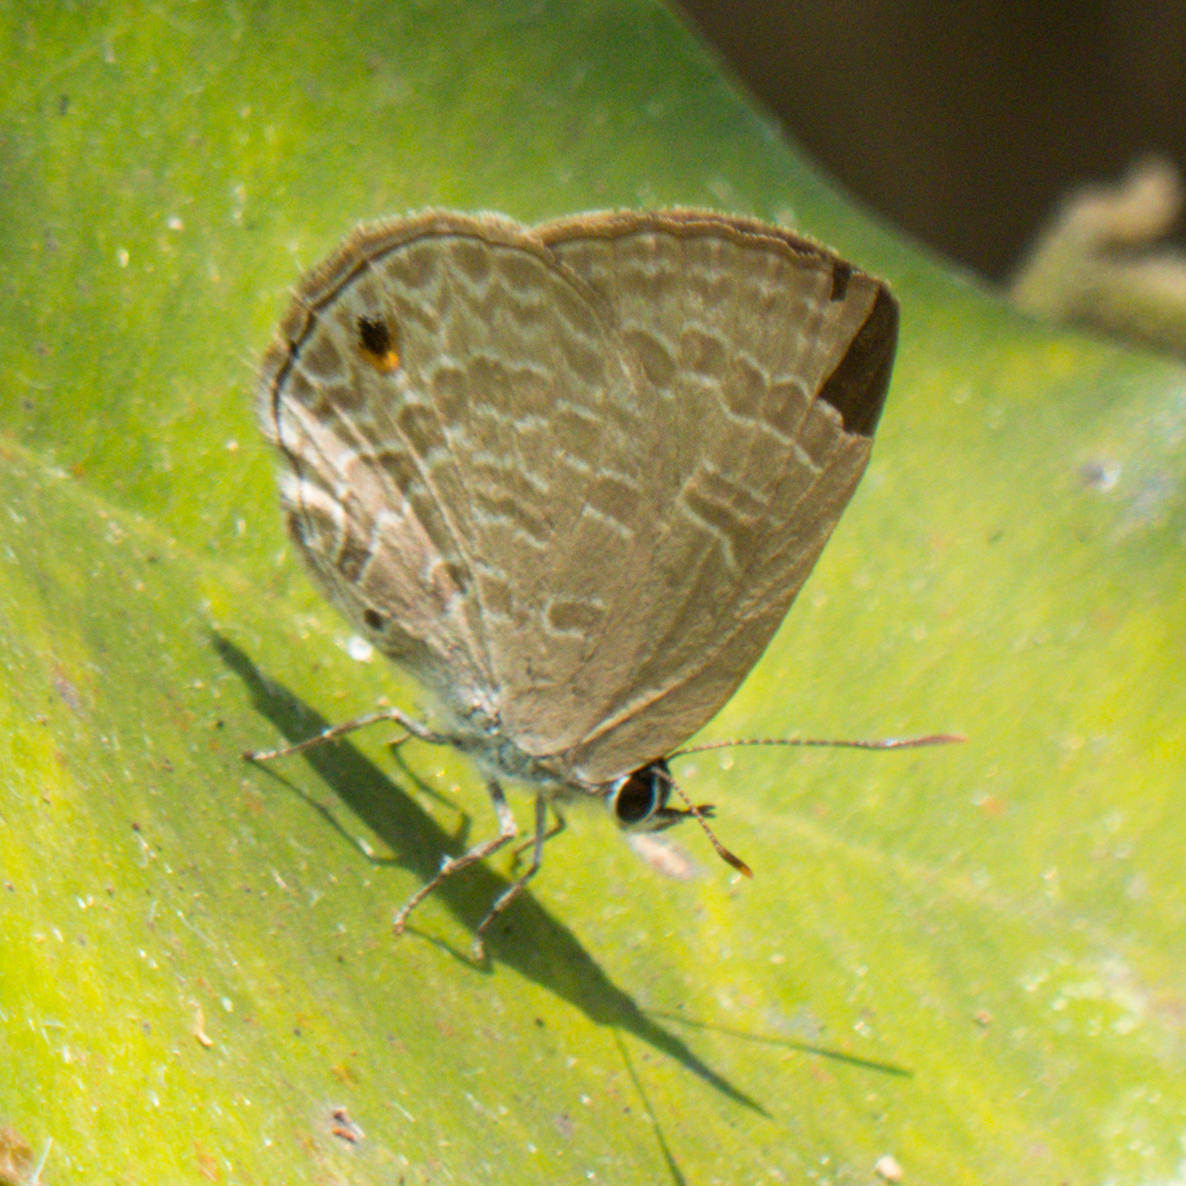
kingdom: Animalia
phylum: Arthropoda
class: Insecta
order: Lepidoptera
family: Lycaenidae
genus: Anthene
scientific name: Anthene emolus
